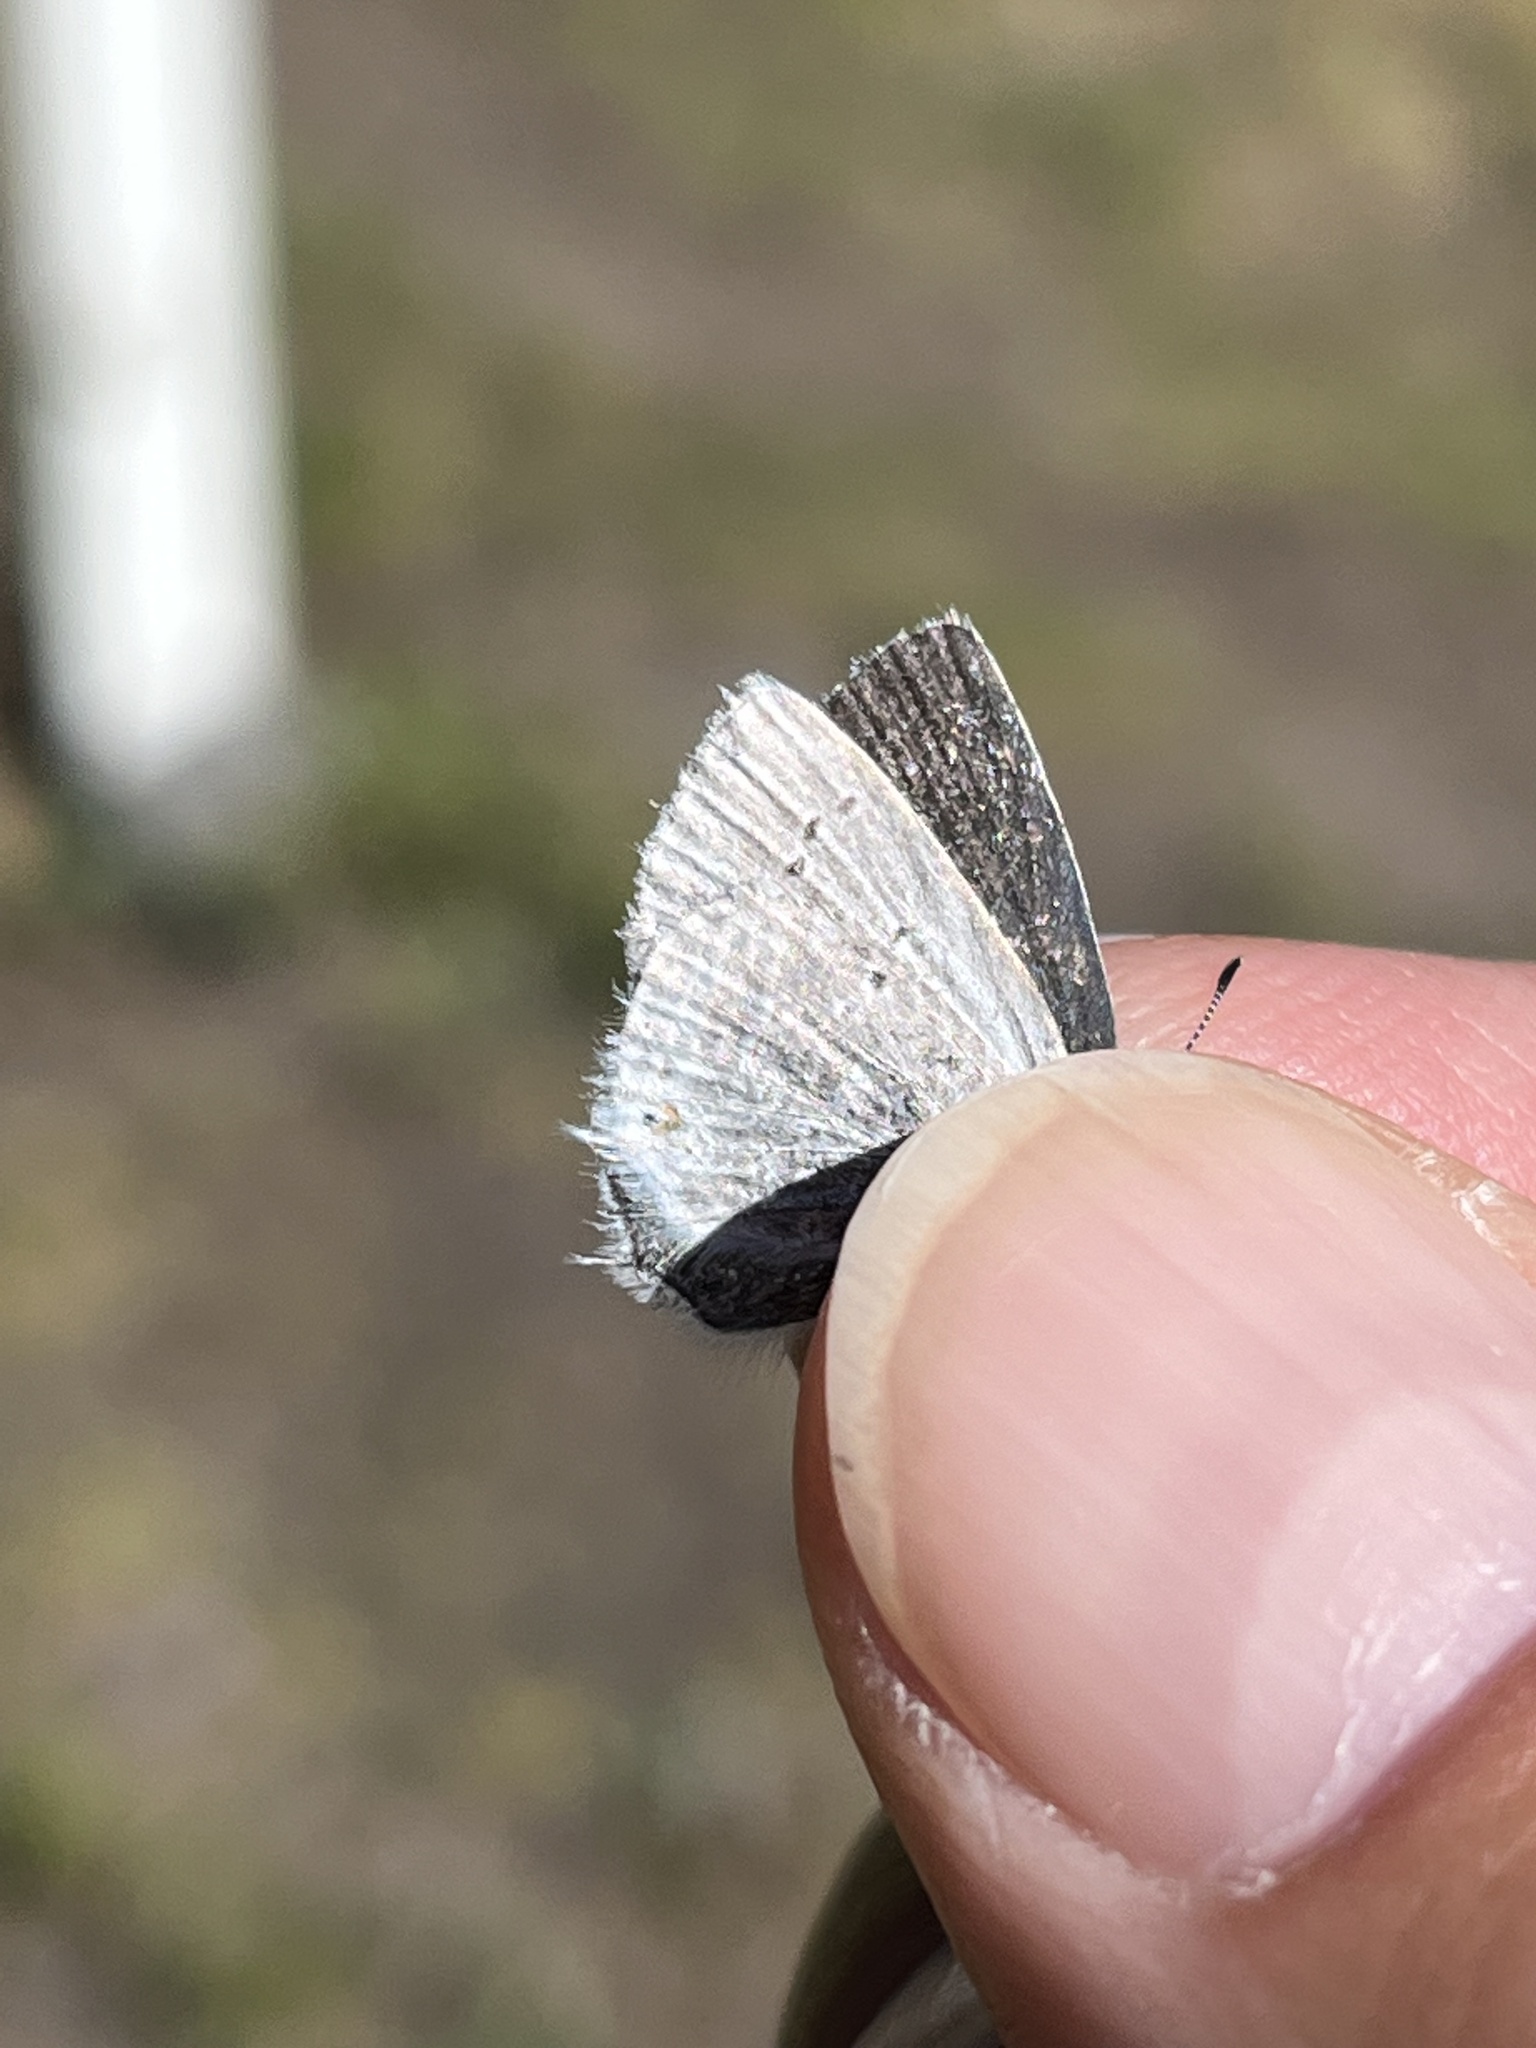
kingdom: Animalia
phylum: Arthropoda
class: Insecta
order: Lepidoptera
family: Lycaenidae
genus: Elkalyce
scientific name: Elkalyce amyntula
